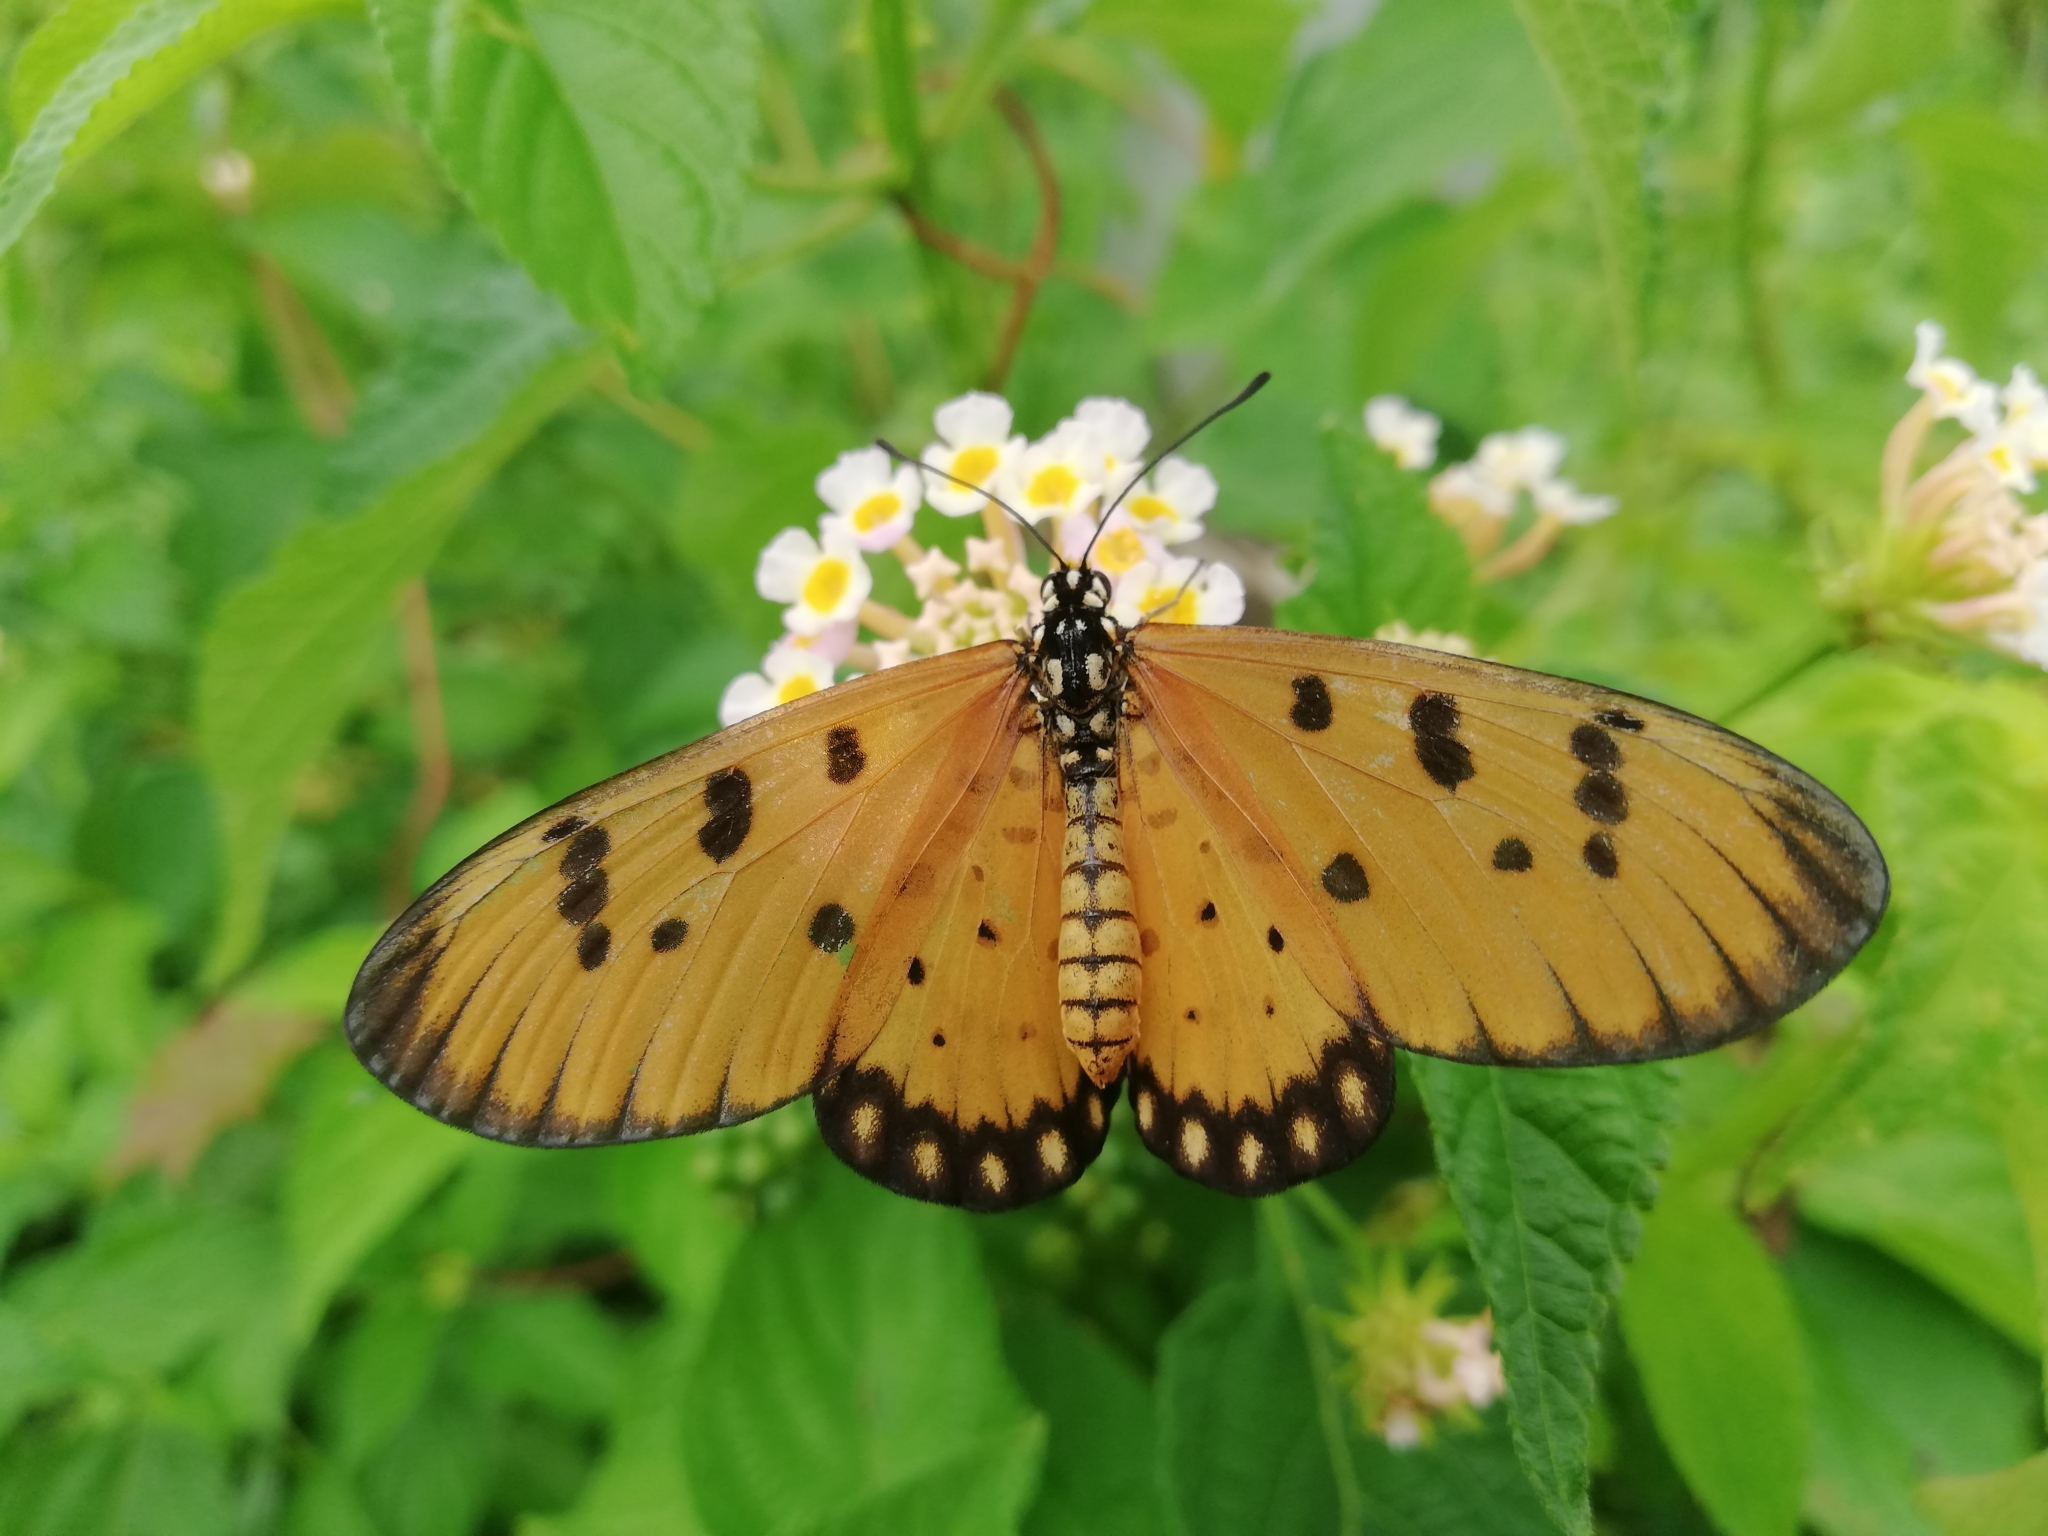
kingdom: Animalia
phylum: Arthropoda
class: Insecta
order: Lepidoptera
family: Nymphalidae
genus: Acraea
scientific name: Acraea terpsicore
